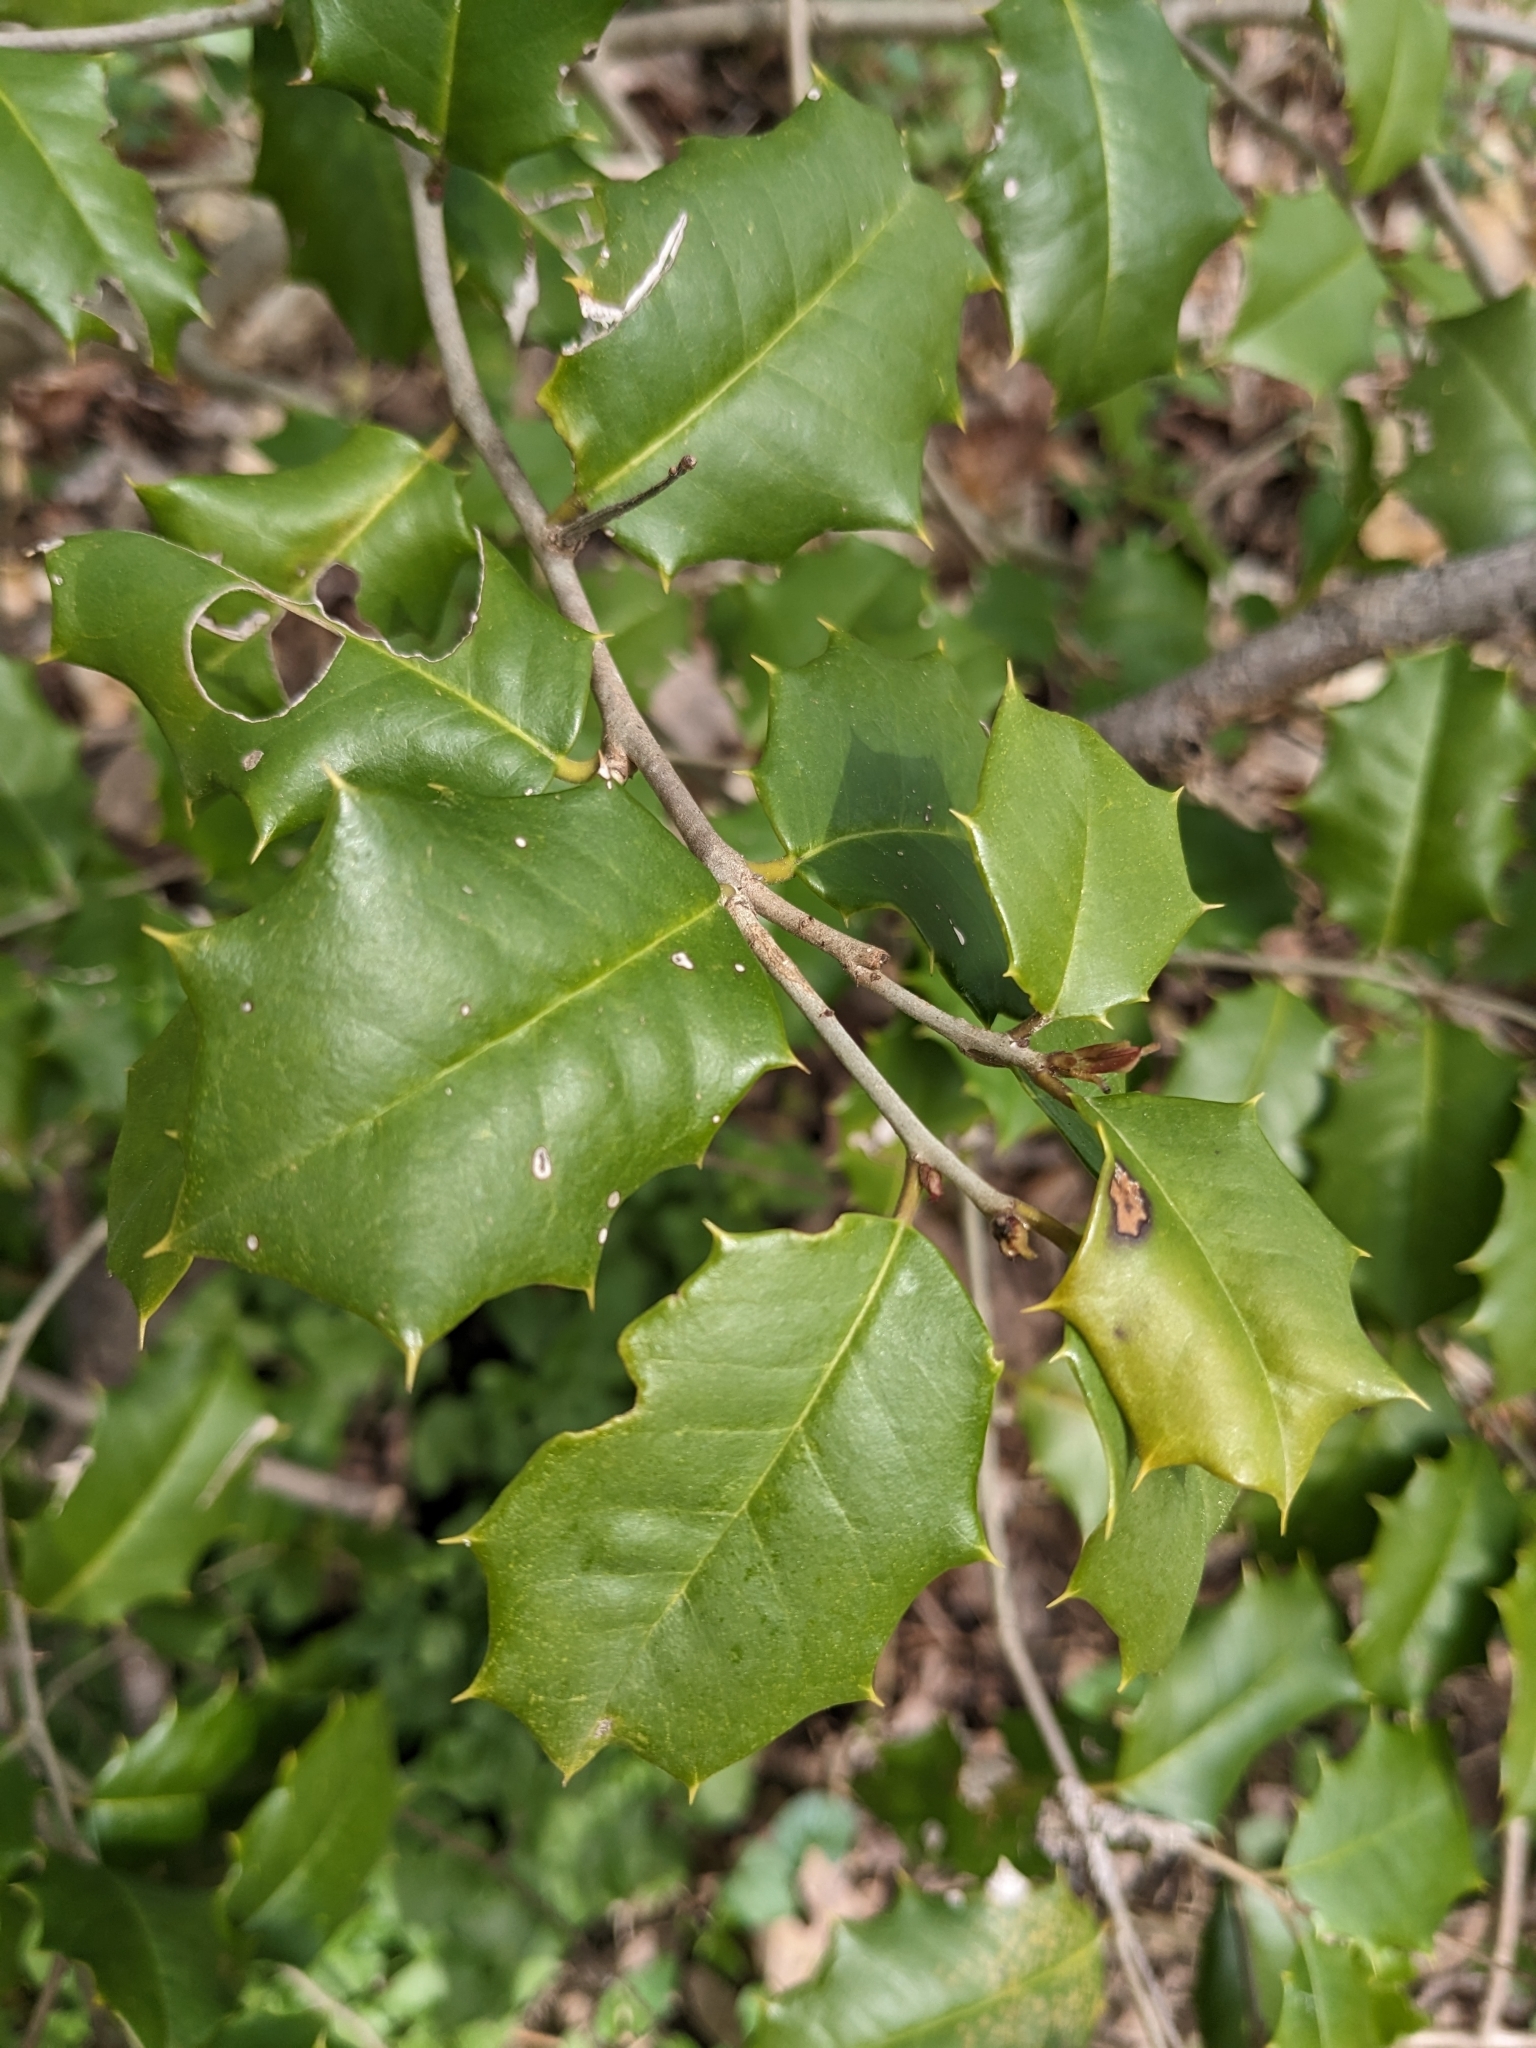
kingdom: Plantae
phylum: Tracheophyta
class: Magnoliopsida
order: Aquifoliales
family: Aquifoliaceae
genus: Ilex
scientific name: Ilex opaca
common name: American holly
